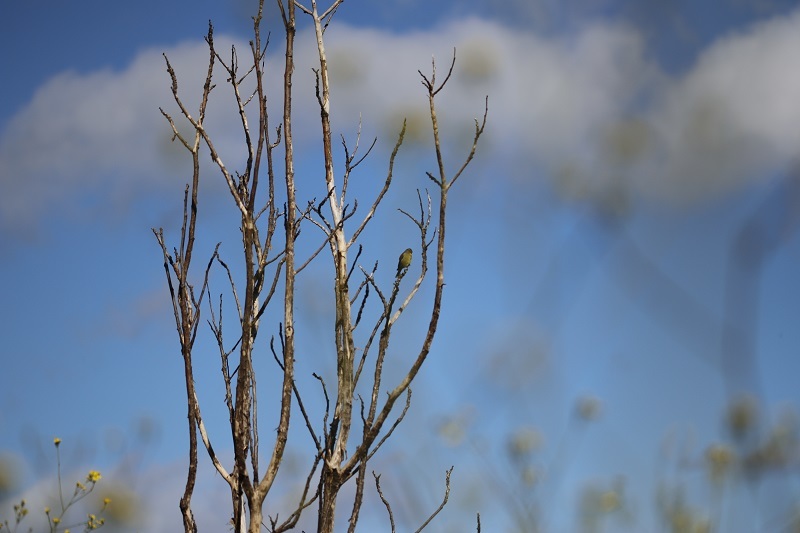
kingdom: Animalia
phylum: Chordata
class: Aves
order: Passeriformes
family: Fringillidae
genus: Crithagra
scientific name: Crithagra totta
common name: Cape siskin
